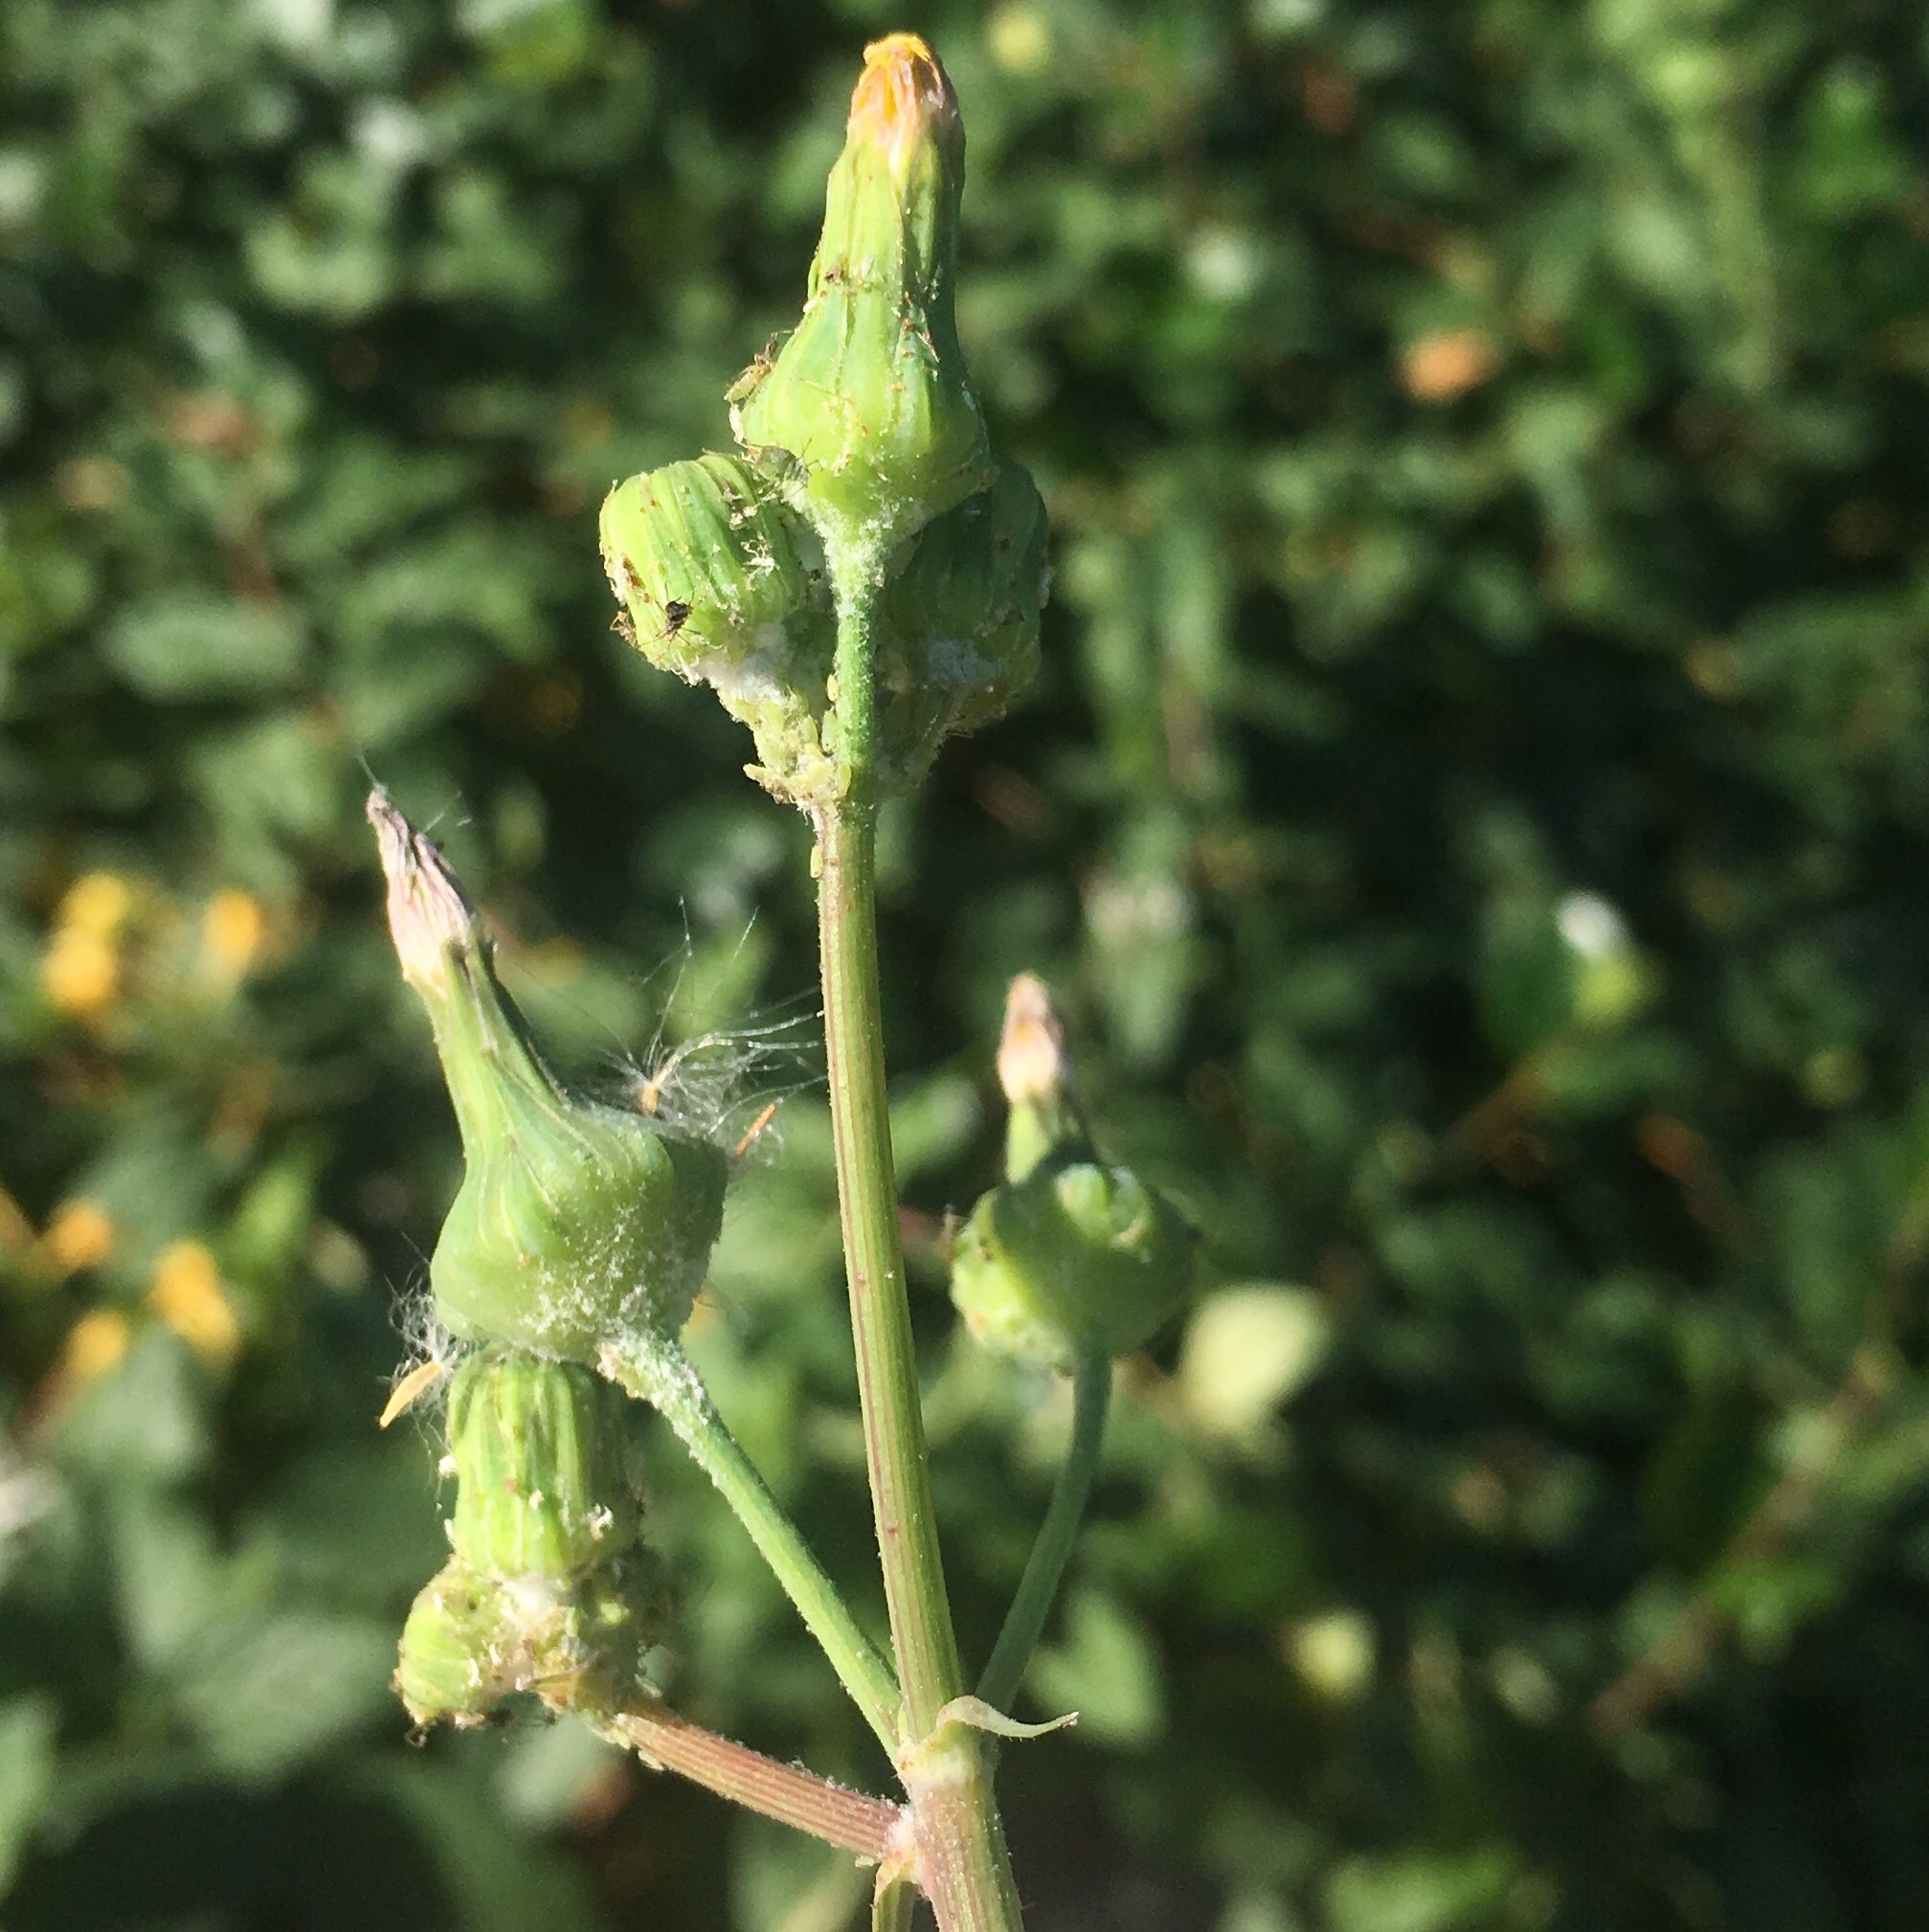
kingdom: Animalia
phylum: Arthropoda
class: Insecta
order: Hemiptera
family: Aphididae
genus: Hyperomyzus
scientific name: Hyperomyzus lactucae
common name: Sow thistle aphid
